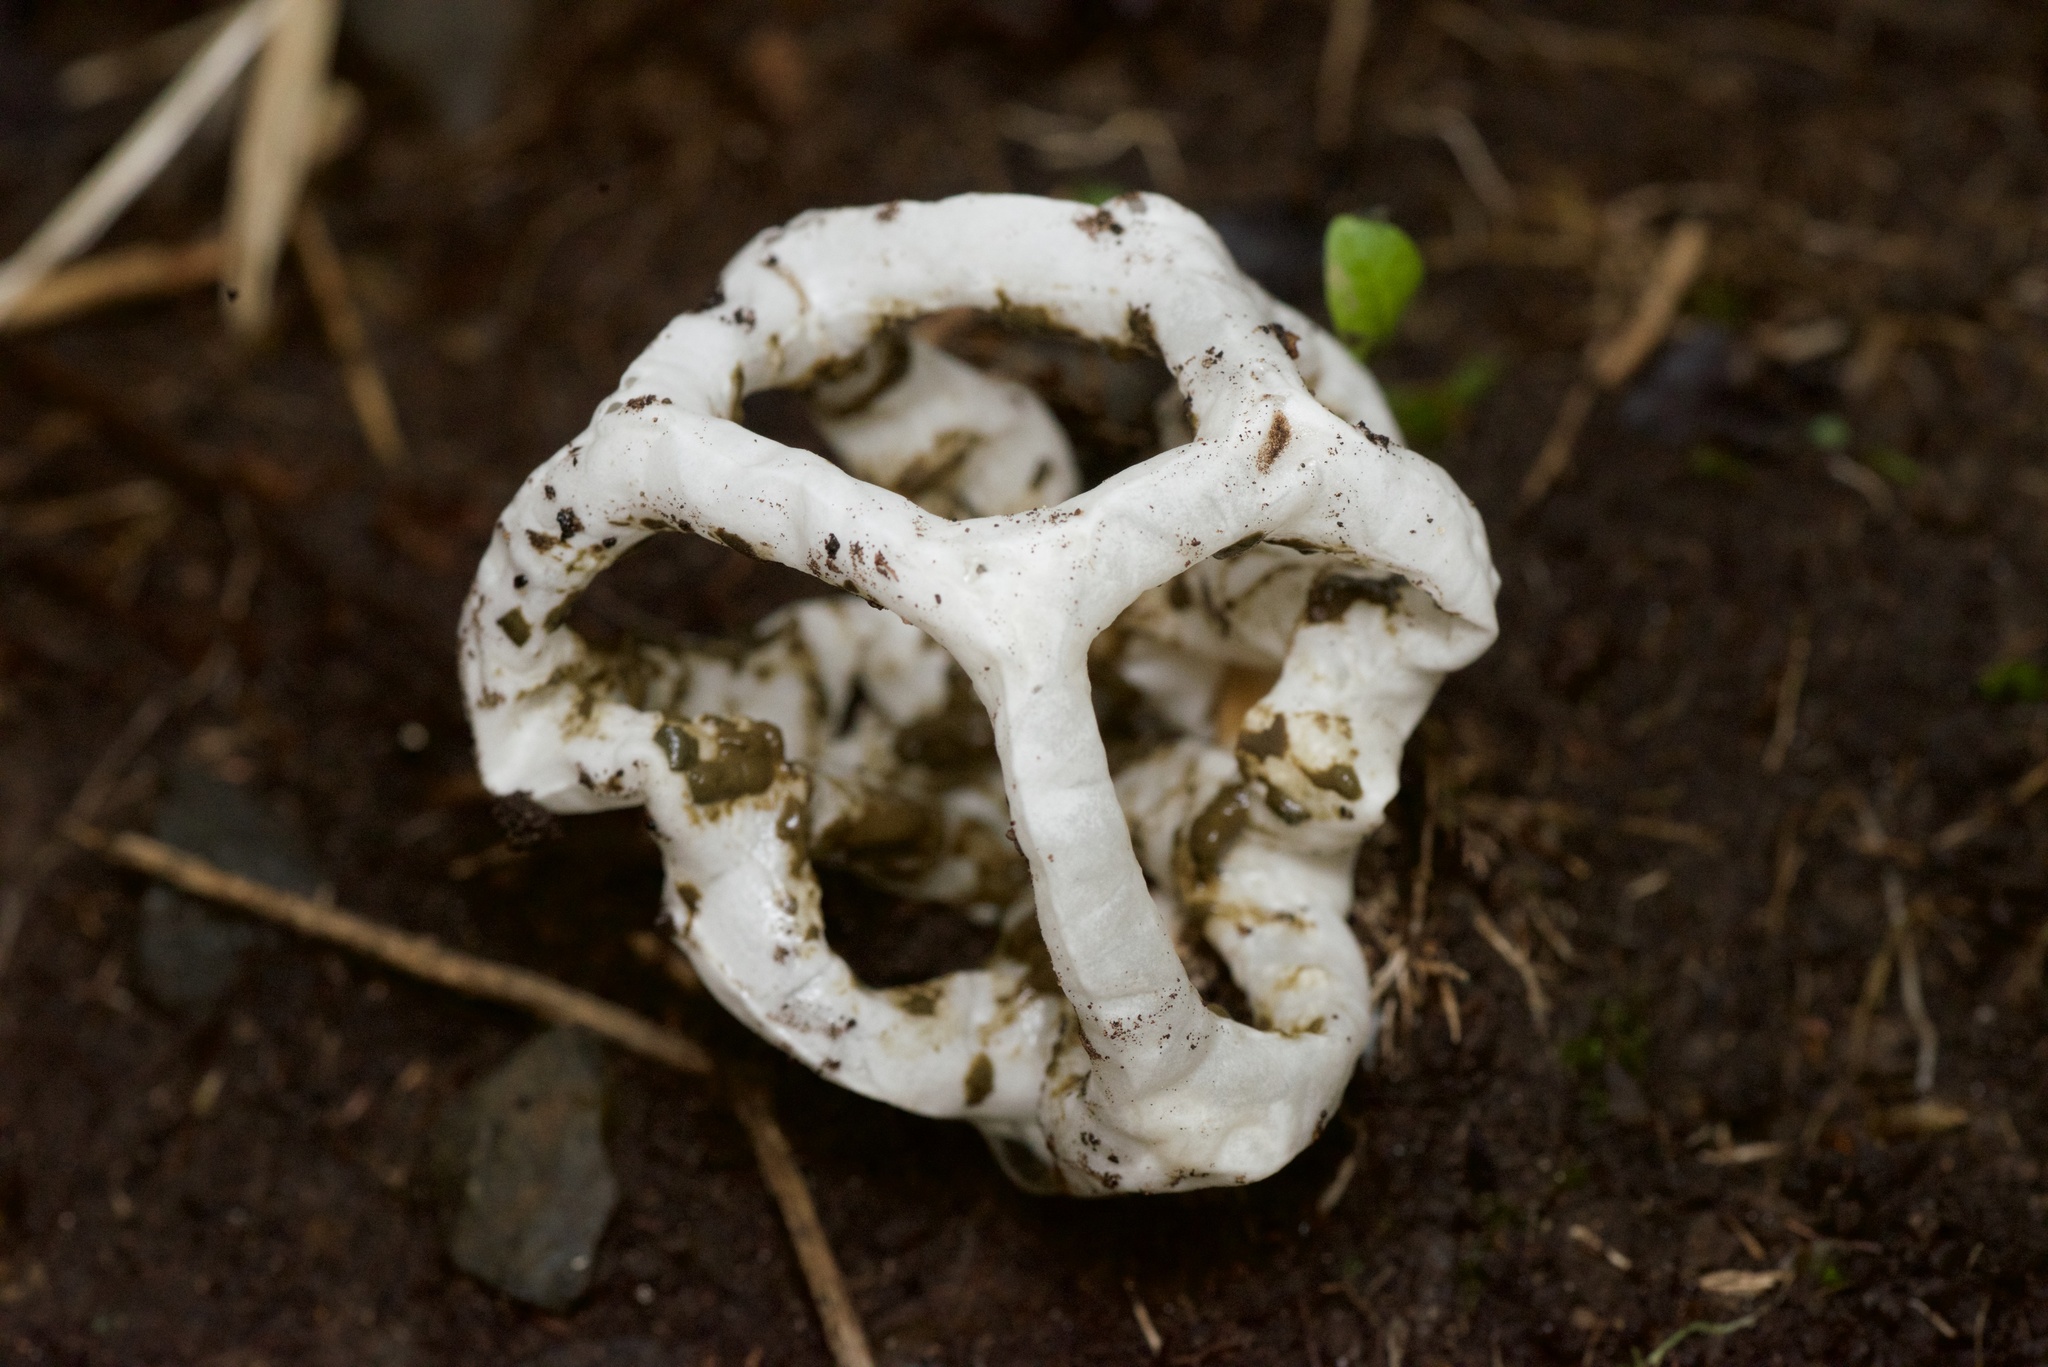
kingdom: Fungi
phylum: Basidiomycota
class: Agaricomycetes
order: Phallales
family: Phallaceae
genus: Ileodictyon
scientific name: Ileodictyon cibarium
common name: Basket fungus
